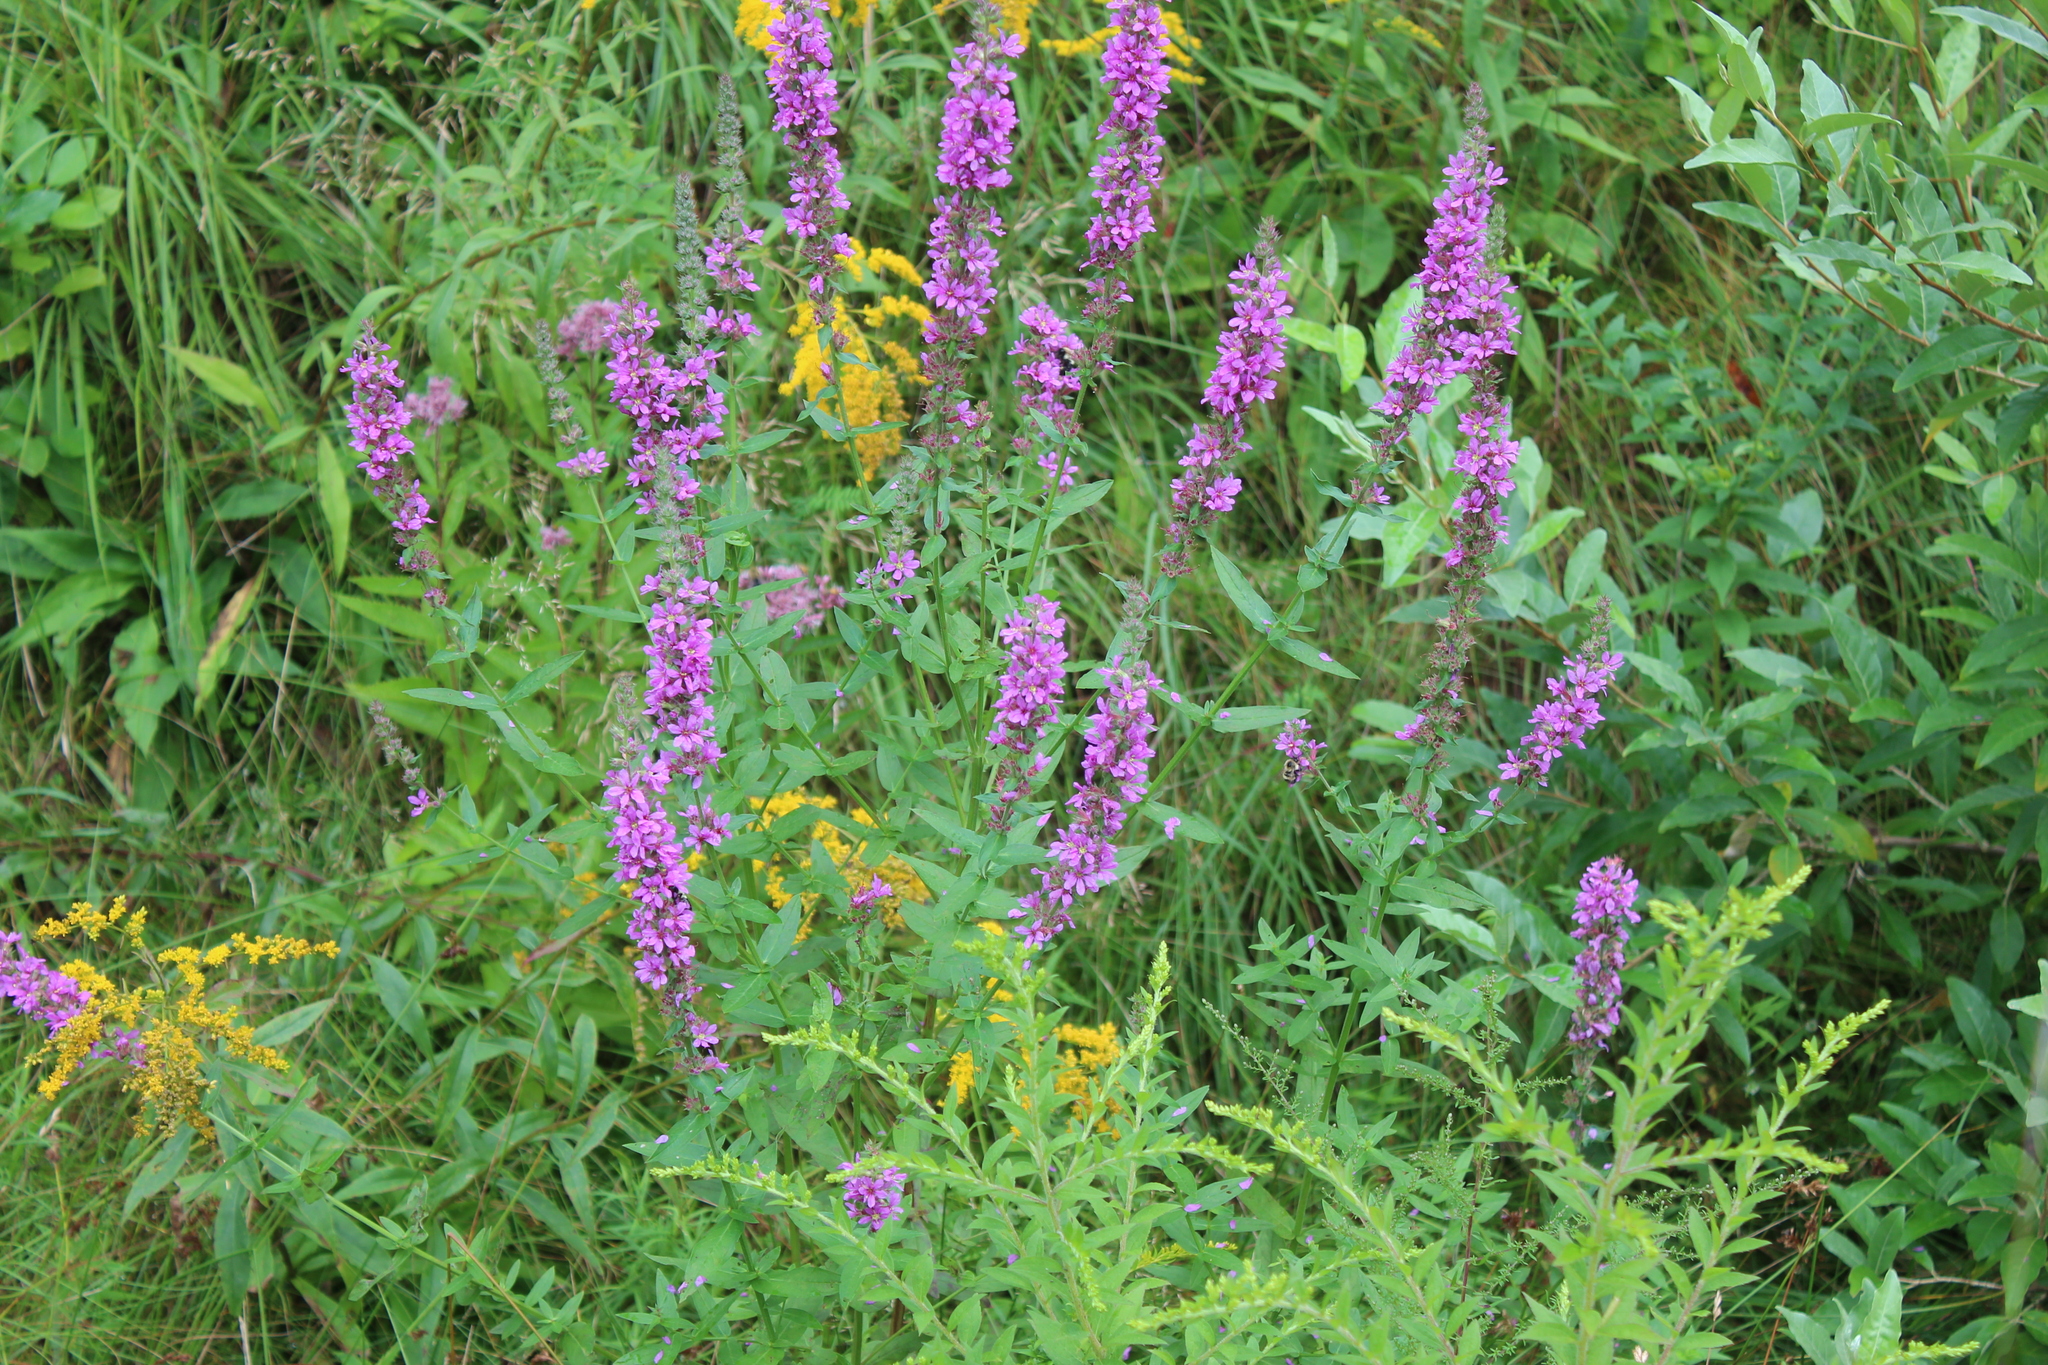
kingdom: Plantae
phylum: Tracheophyta
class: Magnoliopsida
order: Myrtales
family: Lythraceae
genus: Lythrum
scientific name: Lythrum salicaria
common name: Purple loosestrife
